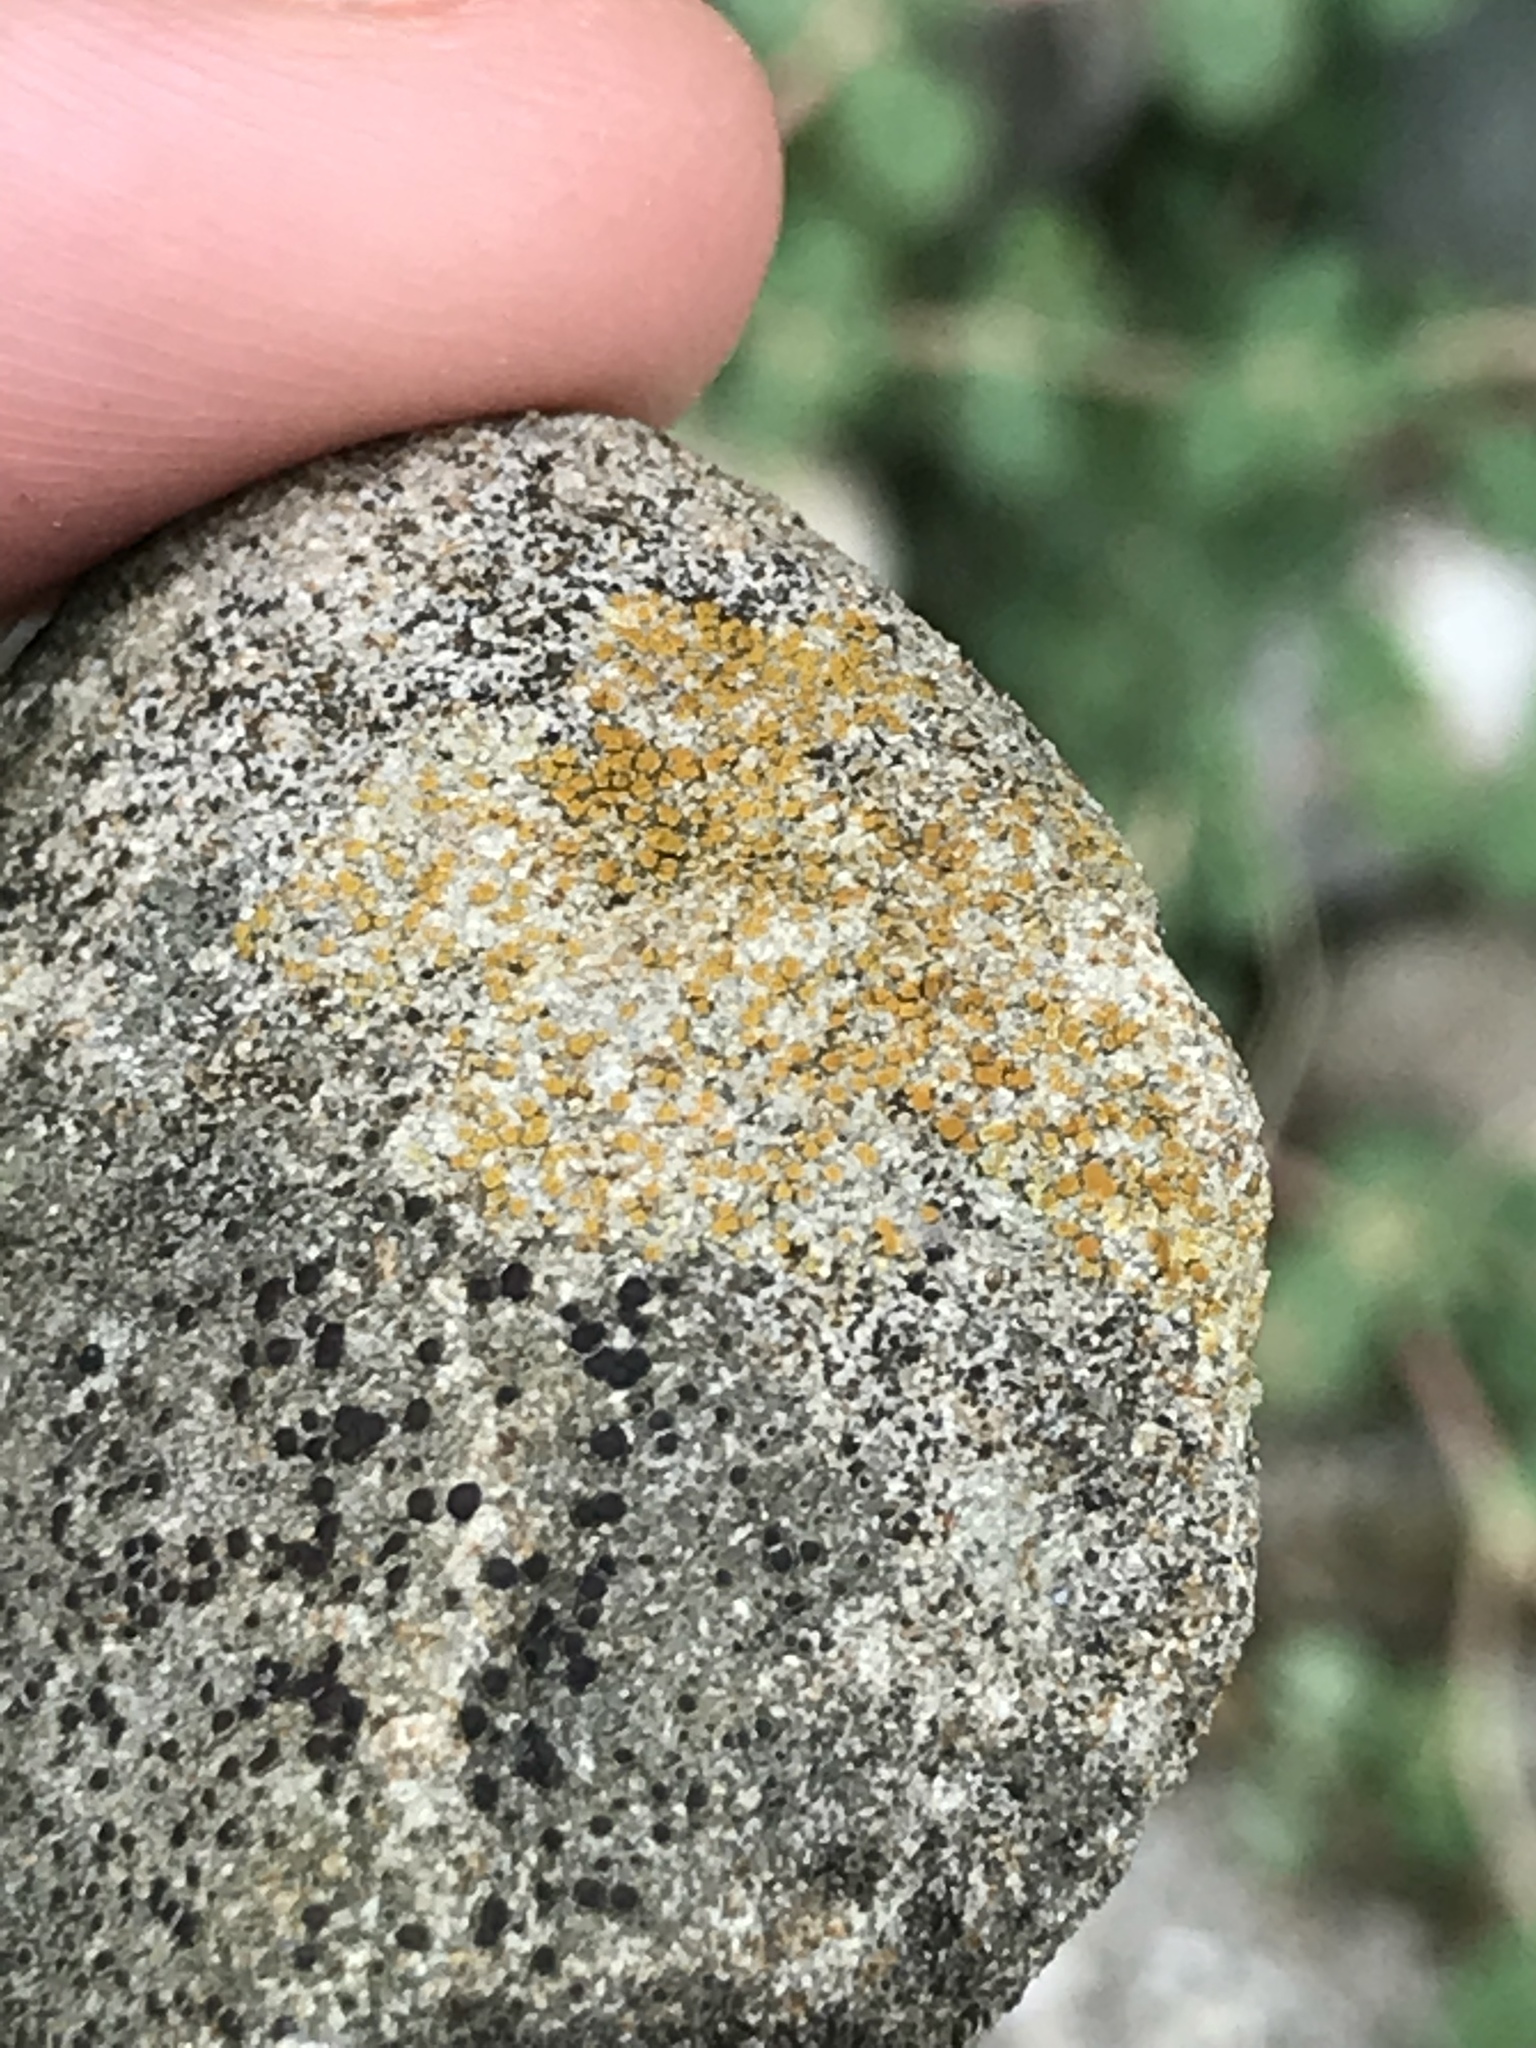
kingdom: Fungi
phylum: Ascomycota
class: Lecanoromycetes
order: Teloschistales
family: Teloschistaceae
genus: Xanthocarpia
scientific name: Xanthocarpia feracissima
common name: Sidewalk firedot
